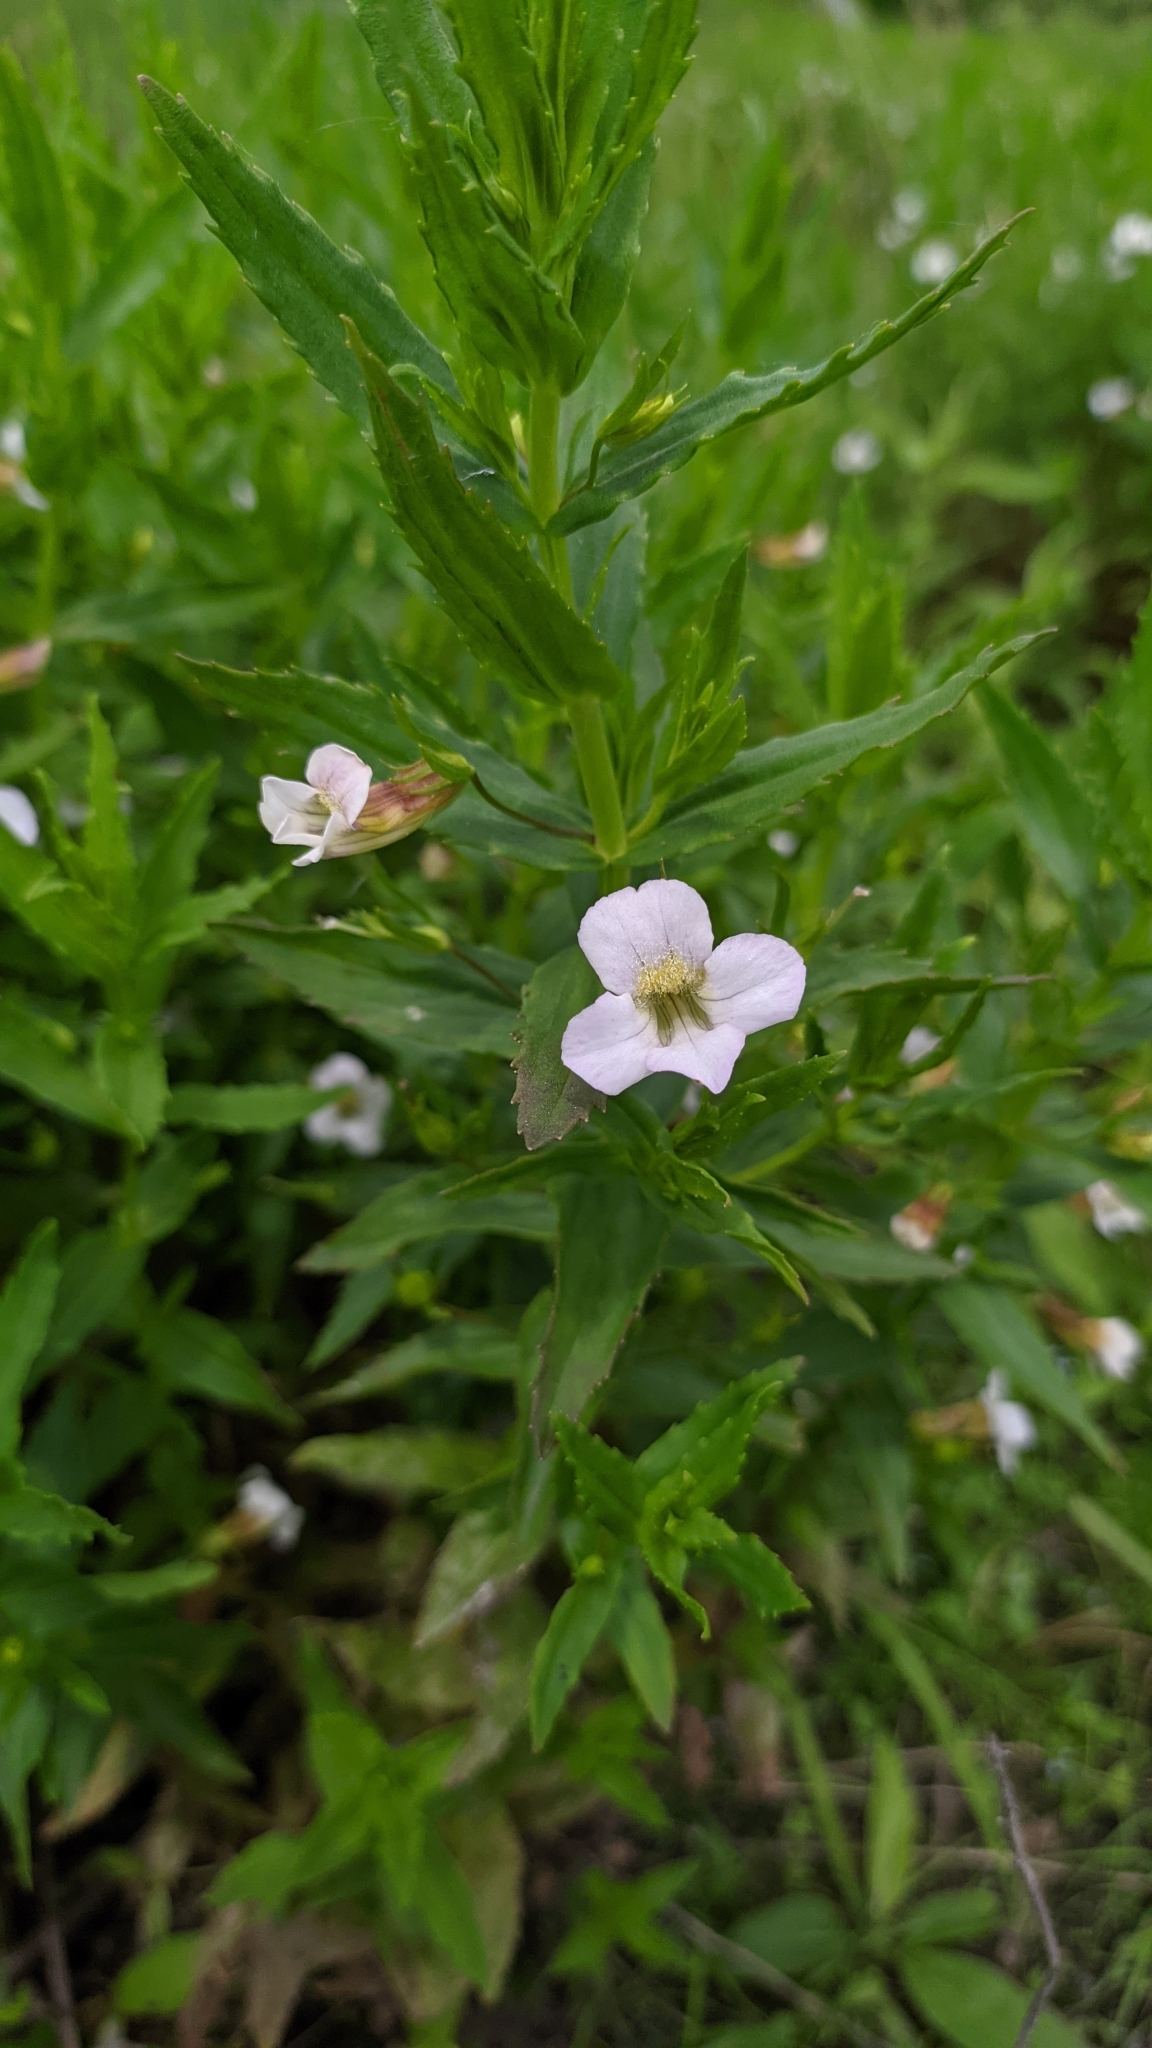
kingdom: Plantae
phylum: Tracheophyta
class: Magnoliopsida
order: Lamiales
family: Plantaginaceae
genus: Gratiola
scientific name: Gratiola officinalis
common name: Gratiola
